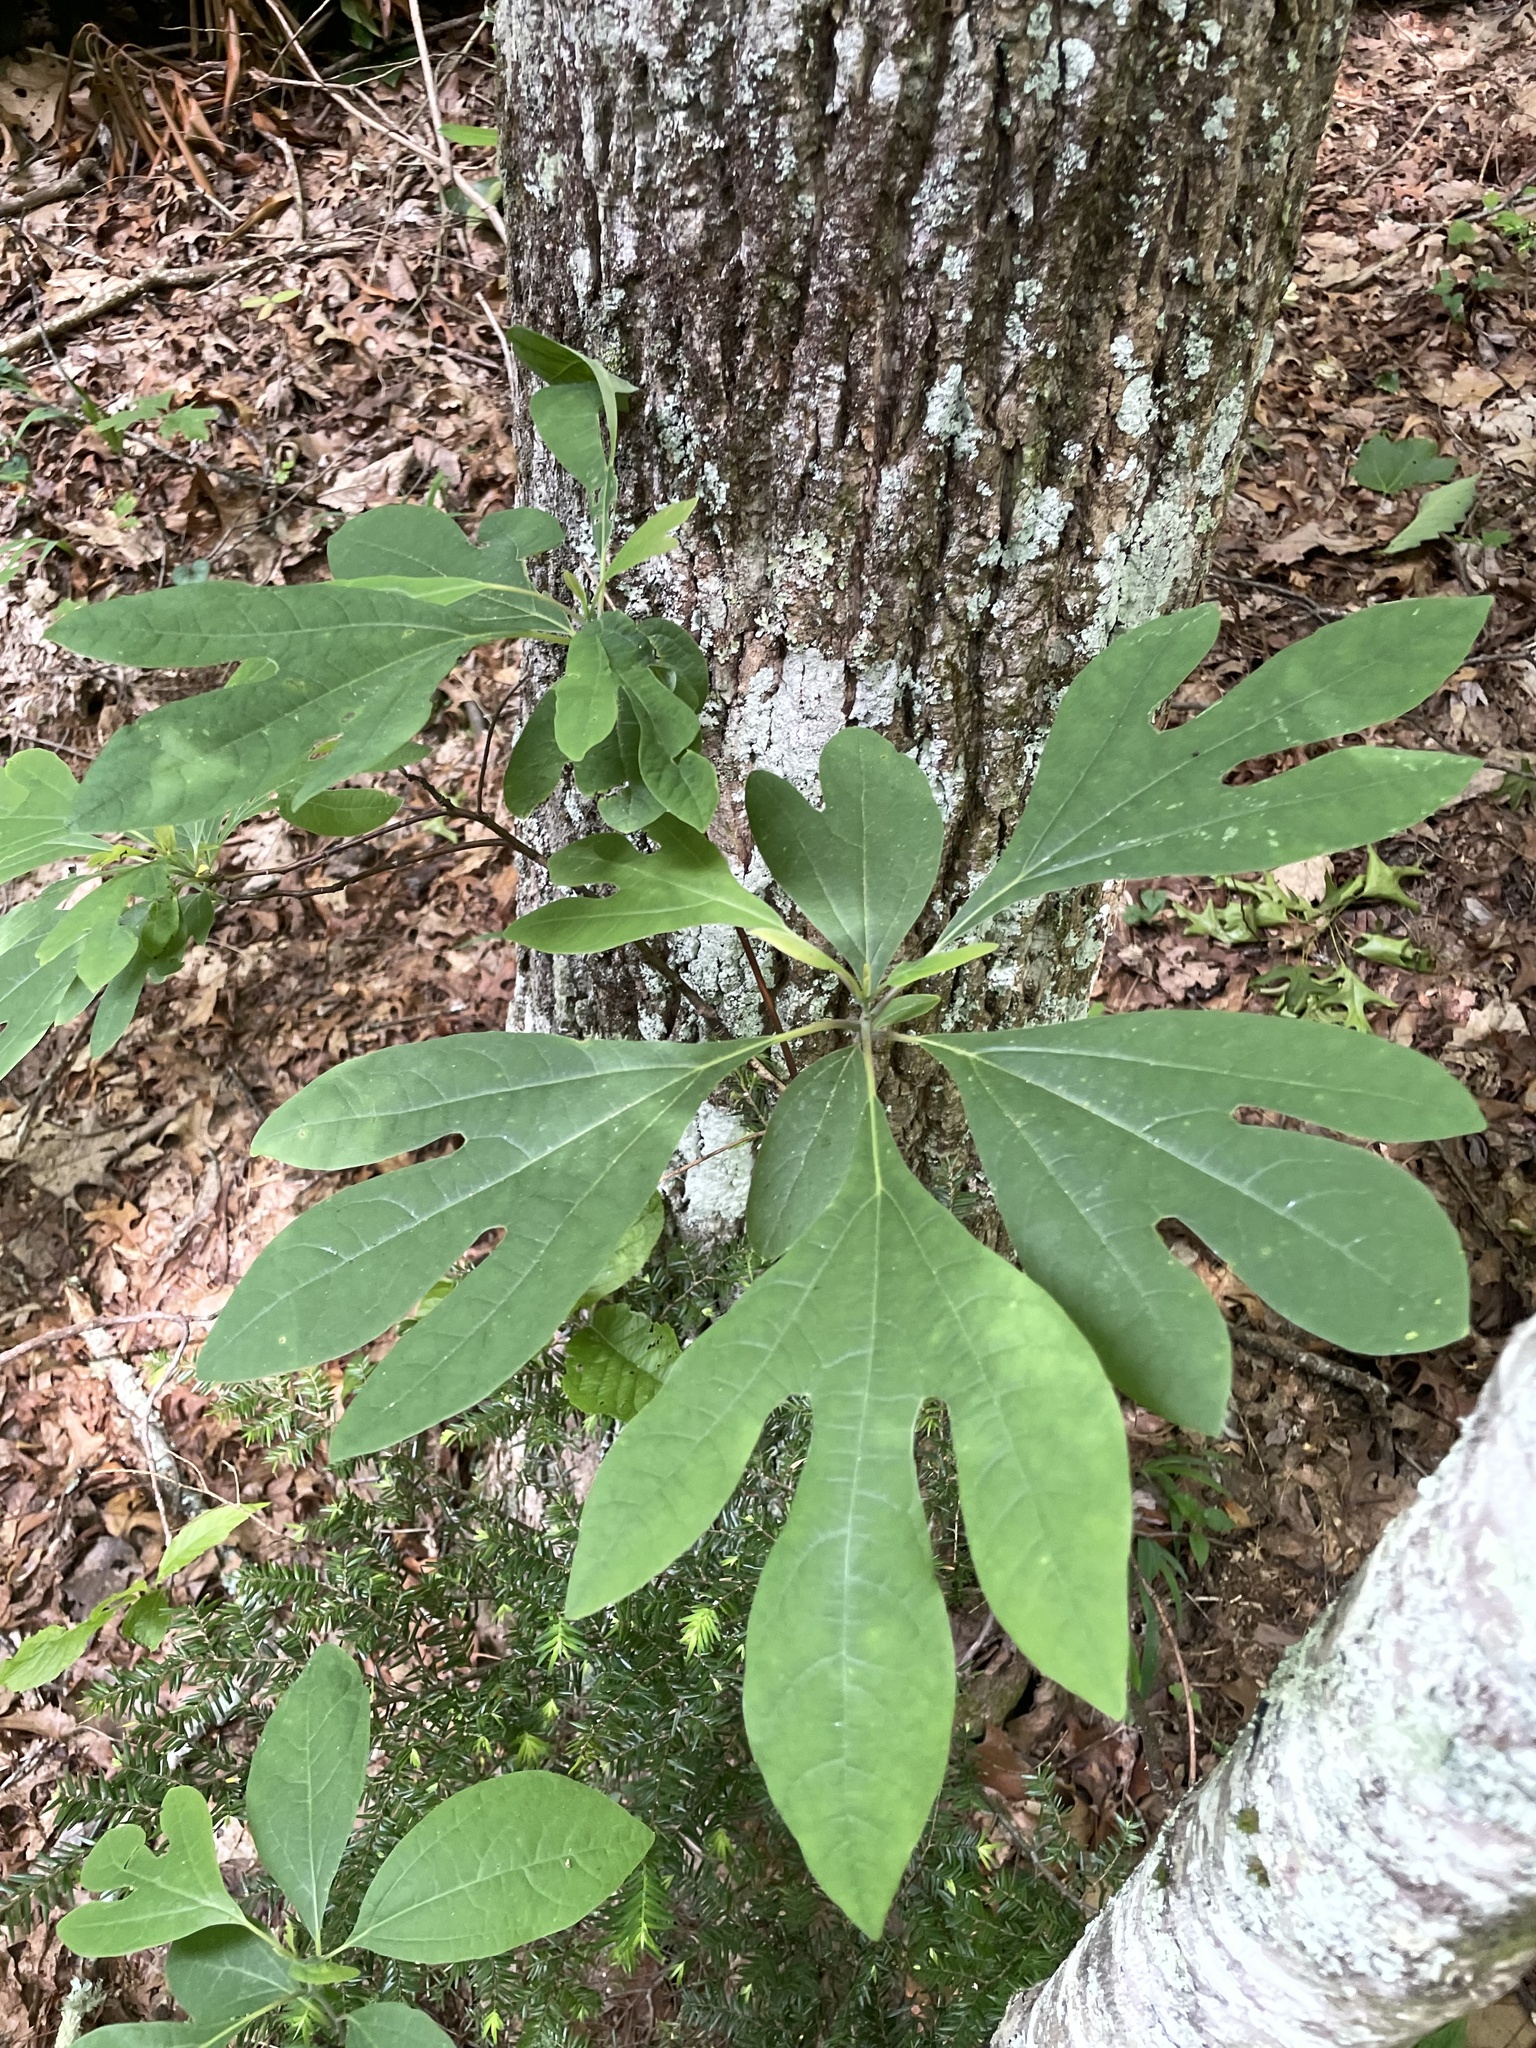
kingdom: Plantae
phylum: Tracheophyta
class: Magnoliopsida
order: Laurales
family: Lauraceae
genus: Sassafras
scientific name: Sassafras albidum
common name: Sassafras
